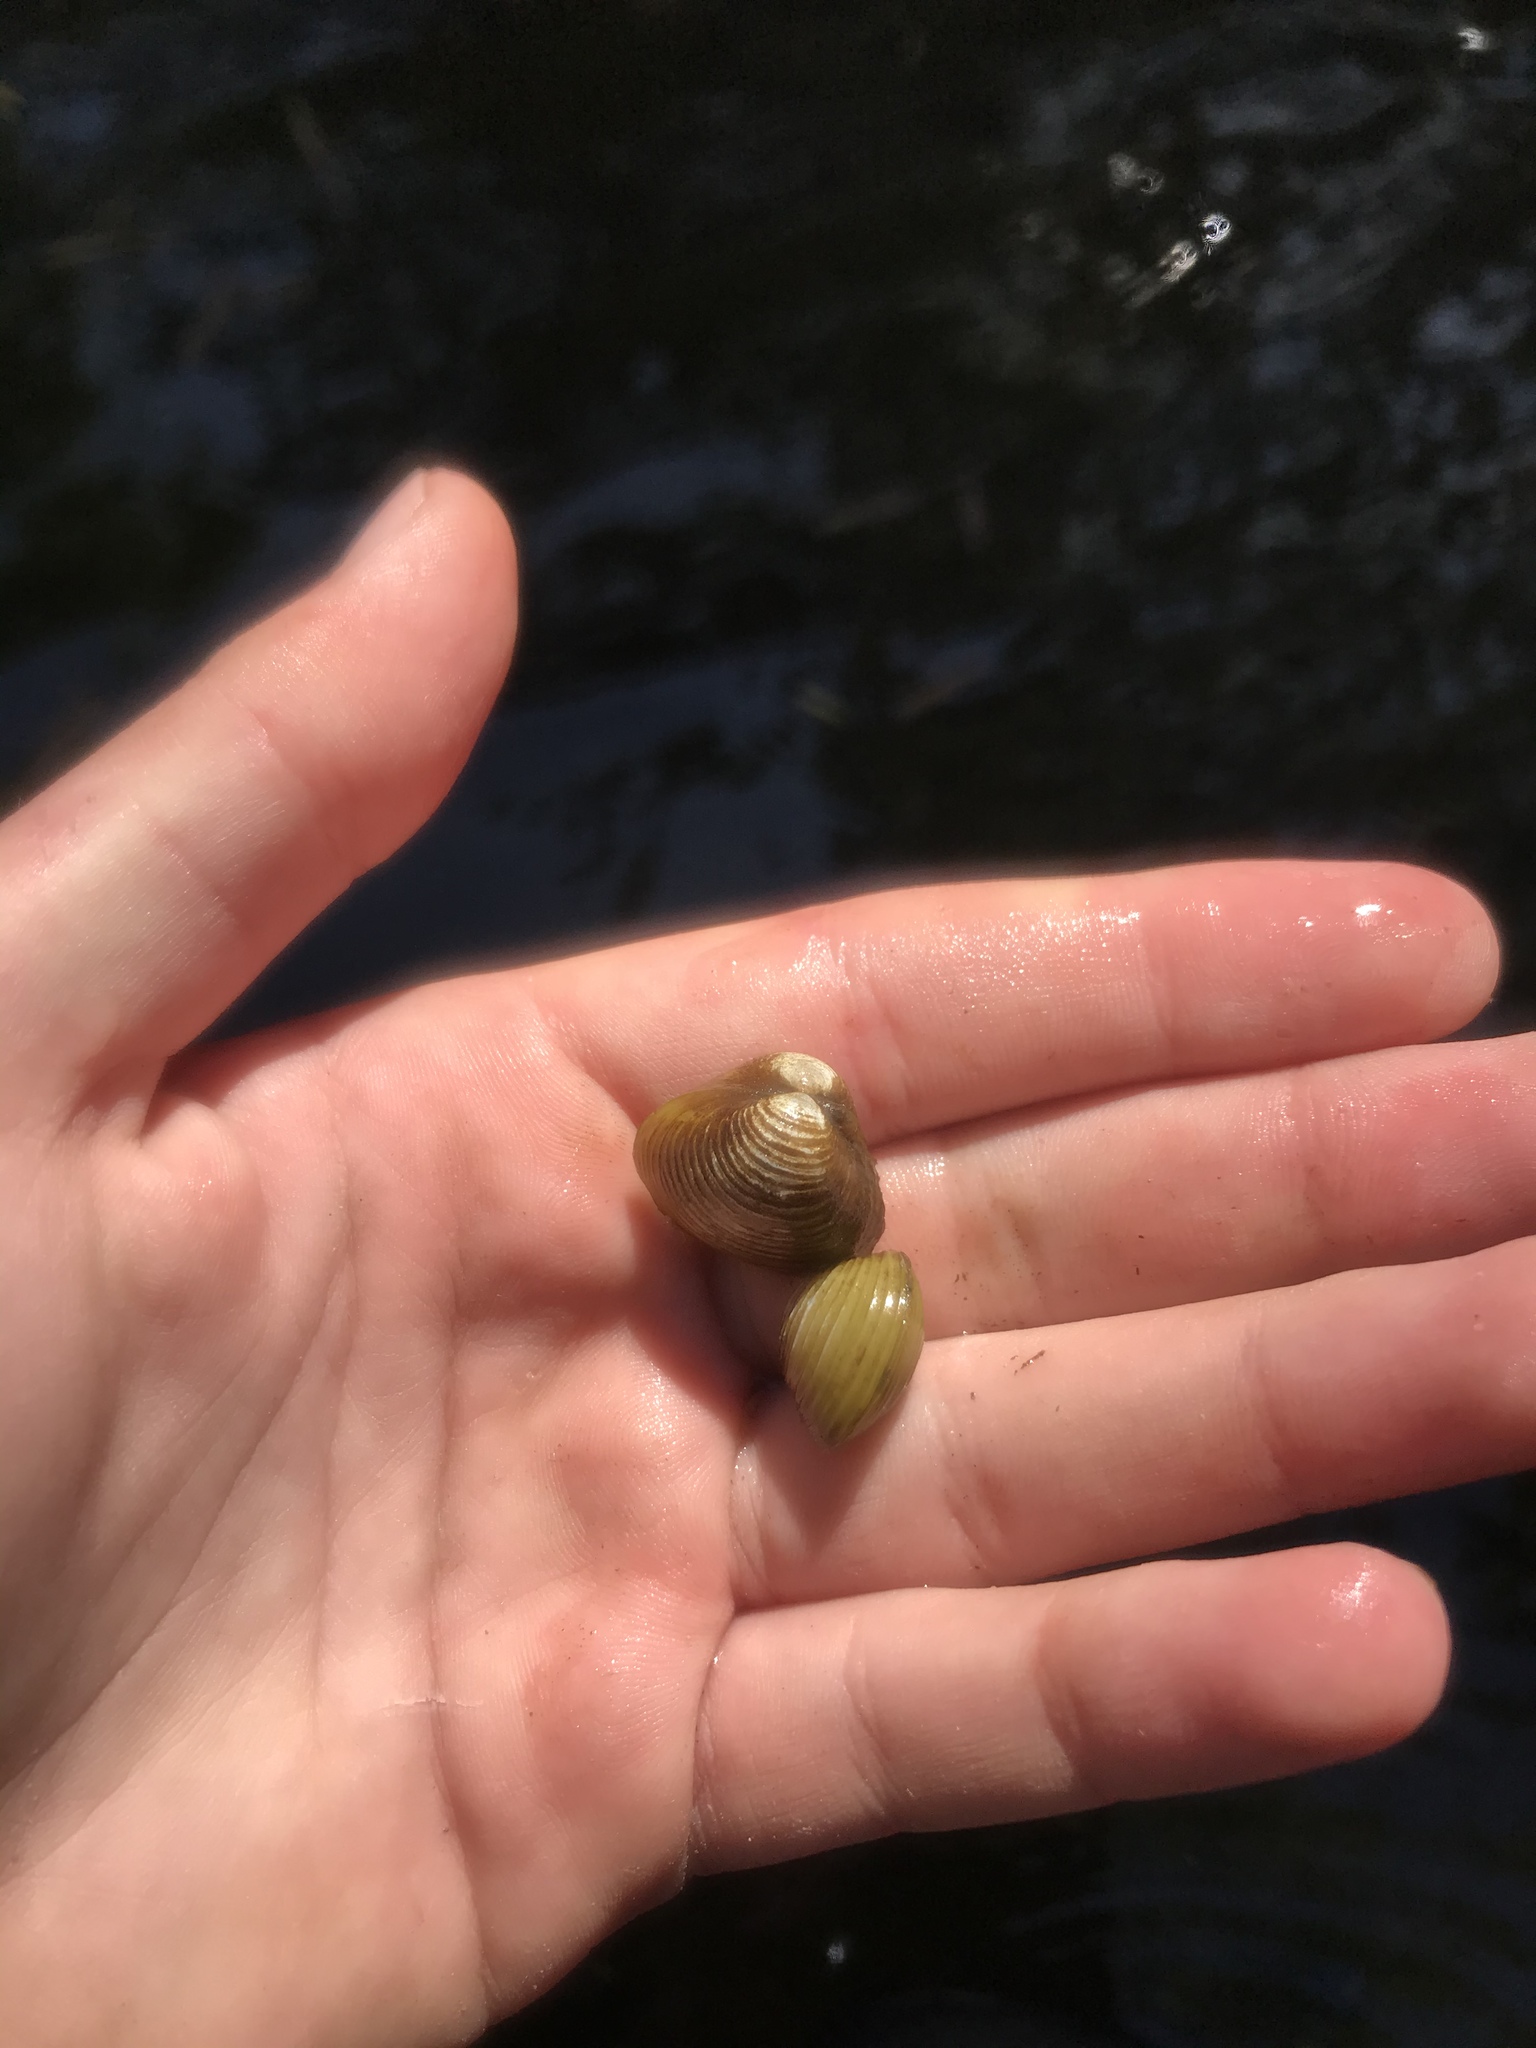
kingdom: Animalia
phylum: Mollusca
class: Bivalvia
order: Venerida
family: Cyrenidae
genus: Corbicula
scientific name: Corbicula fluminea
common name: Asian clam
